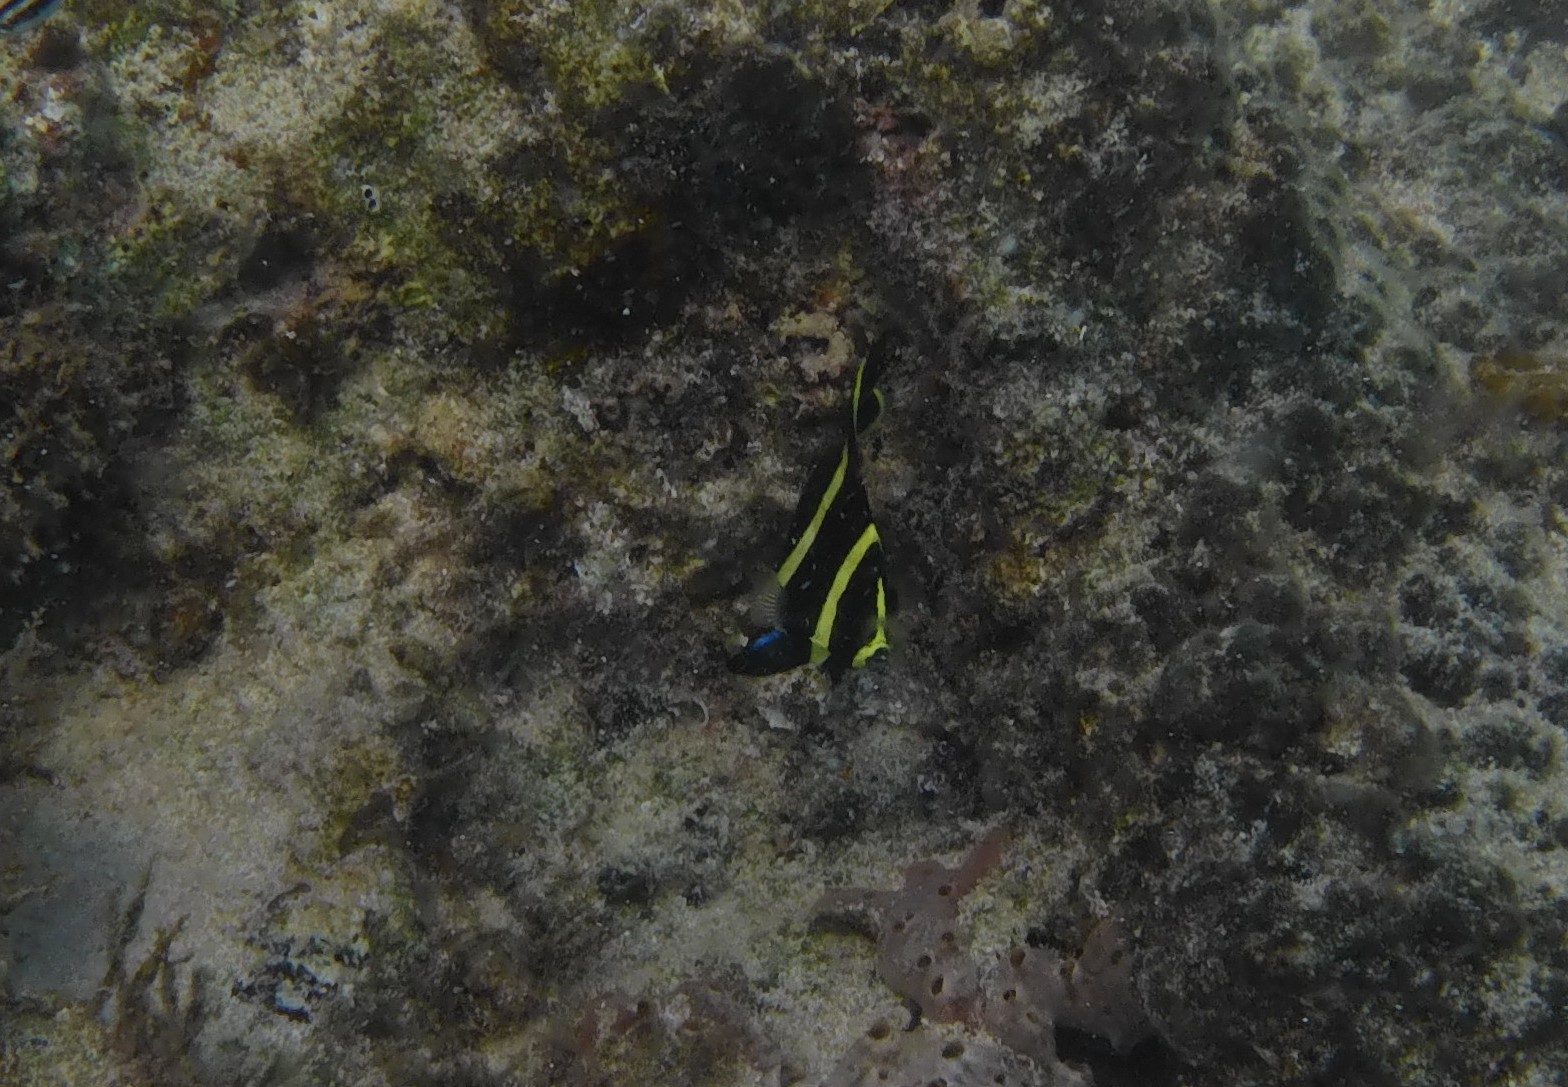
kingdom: Animalia
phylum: Chordata
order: Perciformes
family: Pomacanthidae
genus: Pomacanthus
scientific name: Pomacanthus paru
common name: French angelfish
